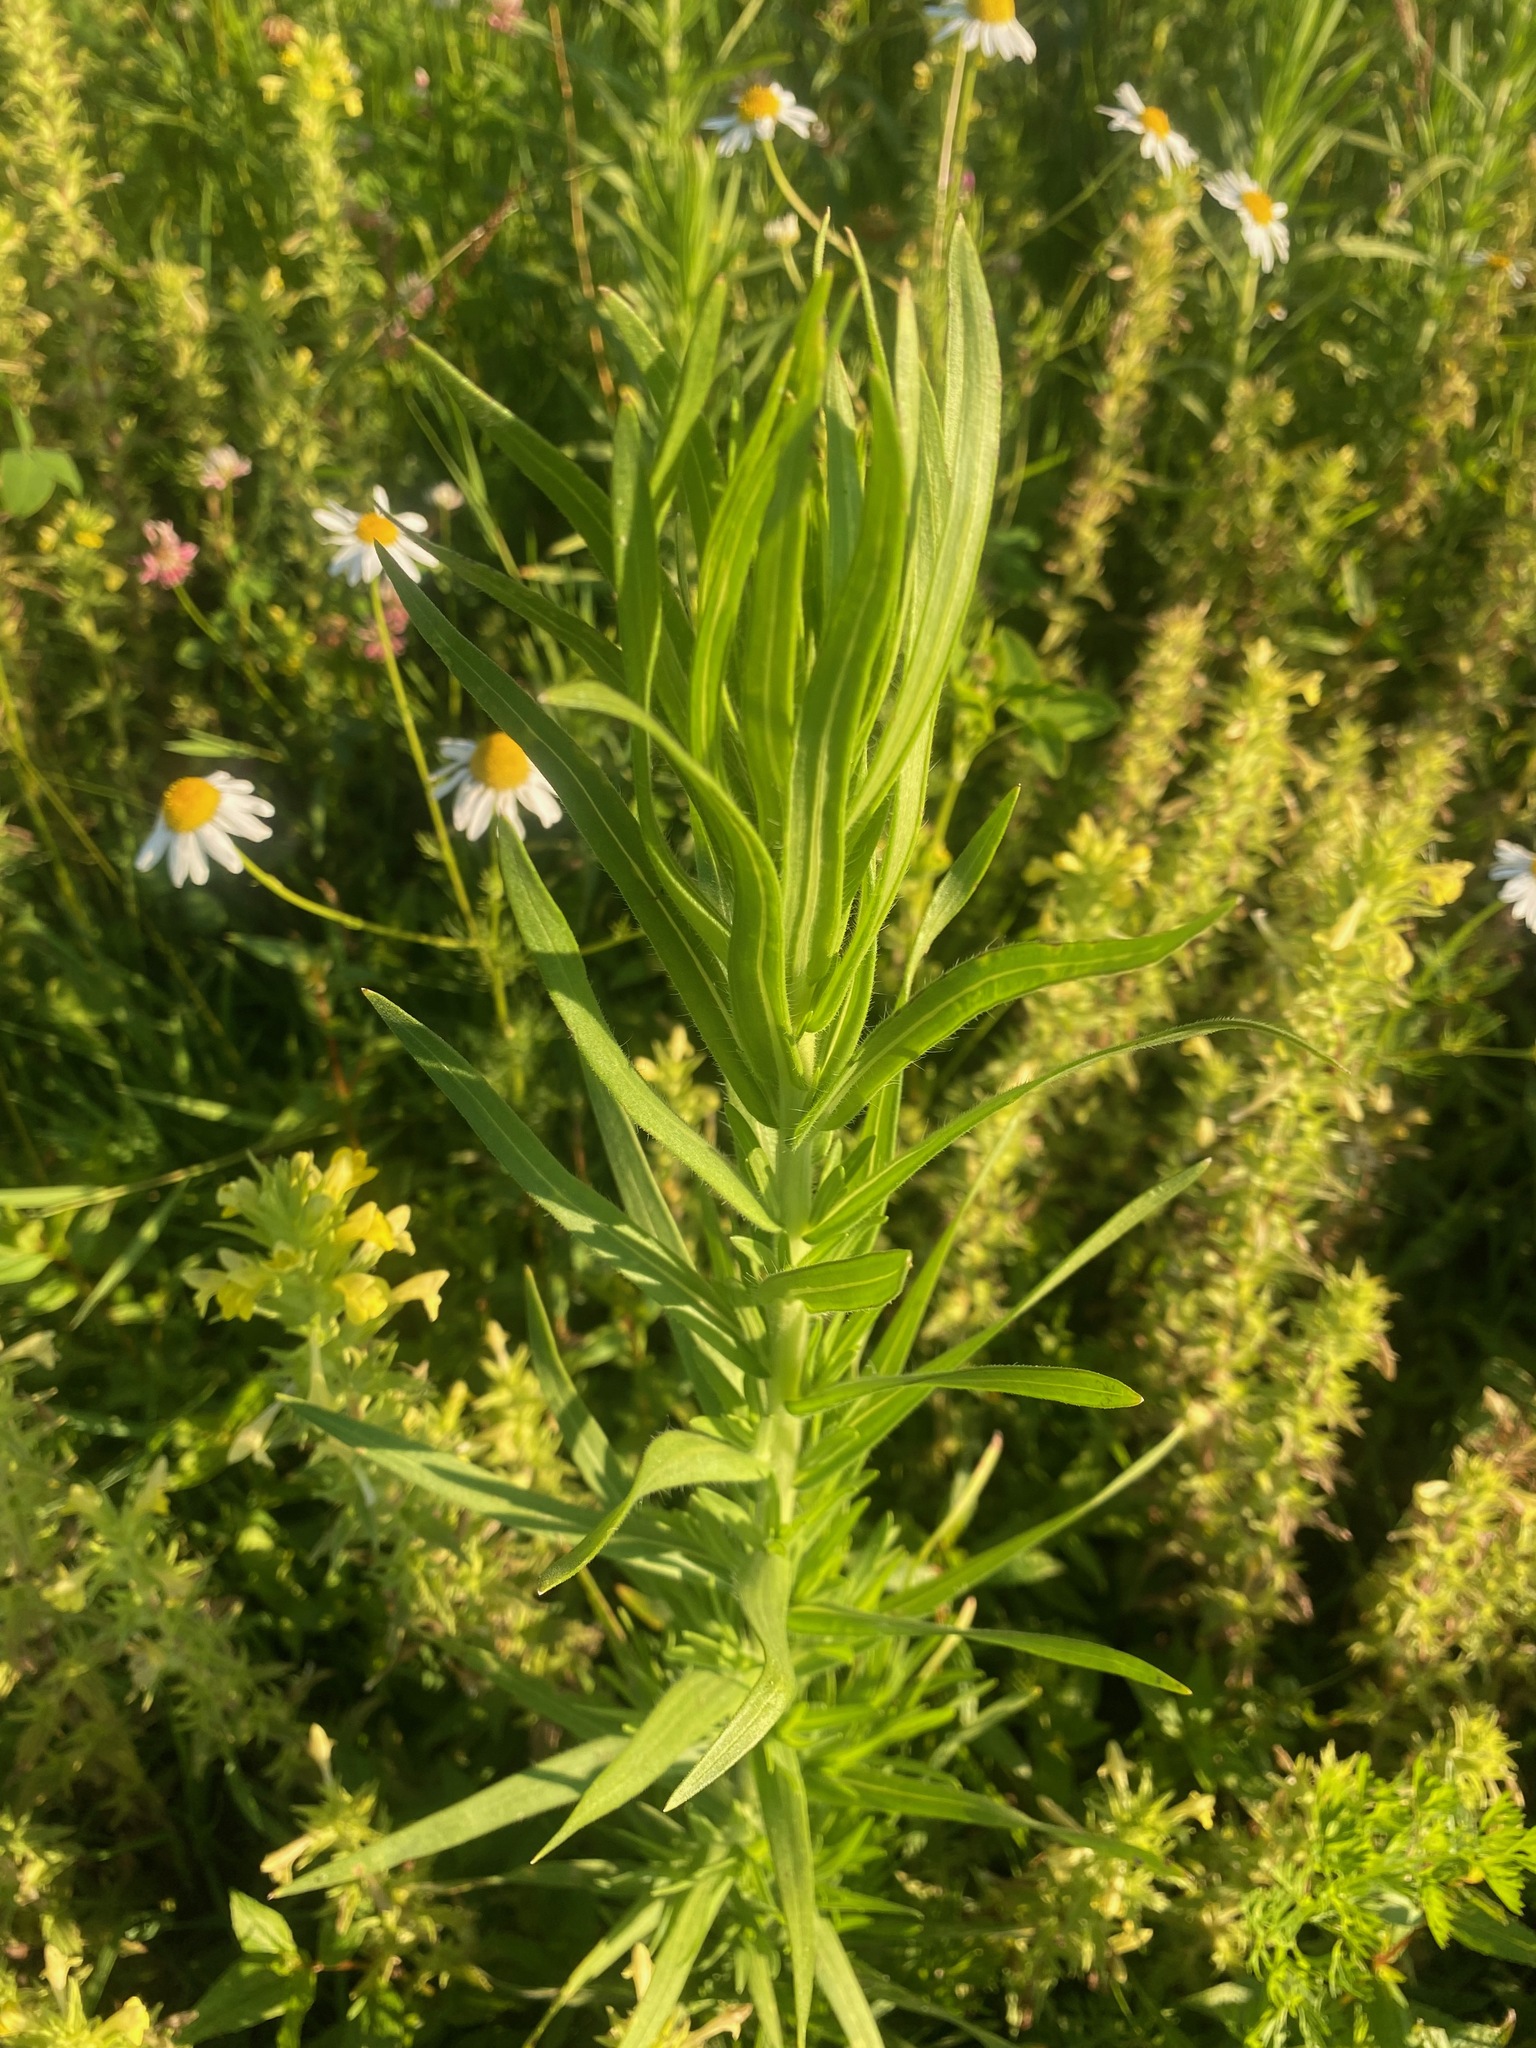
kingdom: Plantae
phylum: Tracheophyta
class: Magnoliopsida
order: Asterales
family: Asteraceae
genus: Erigeron
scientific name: Erigeron canadensis
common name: Canadian fleabane
